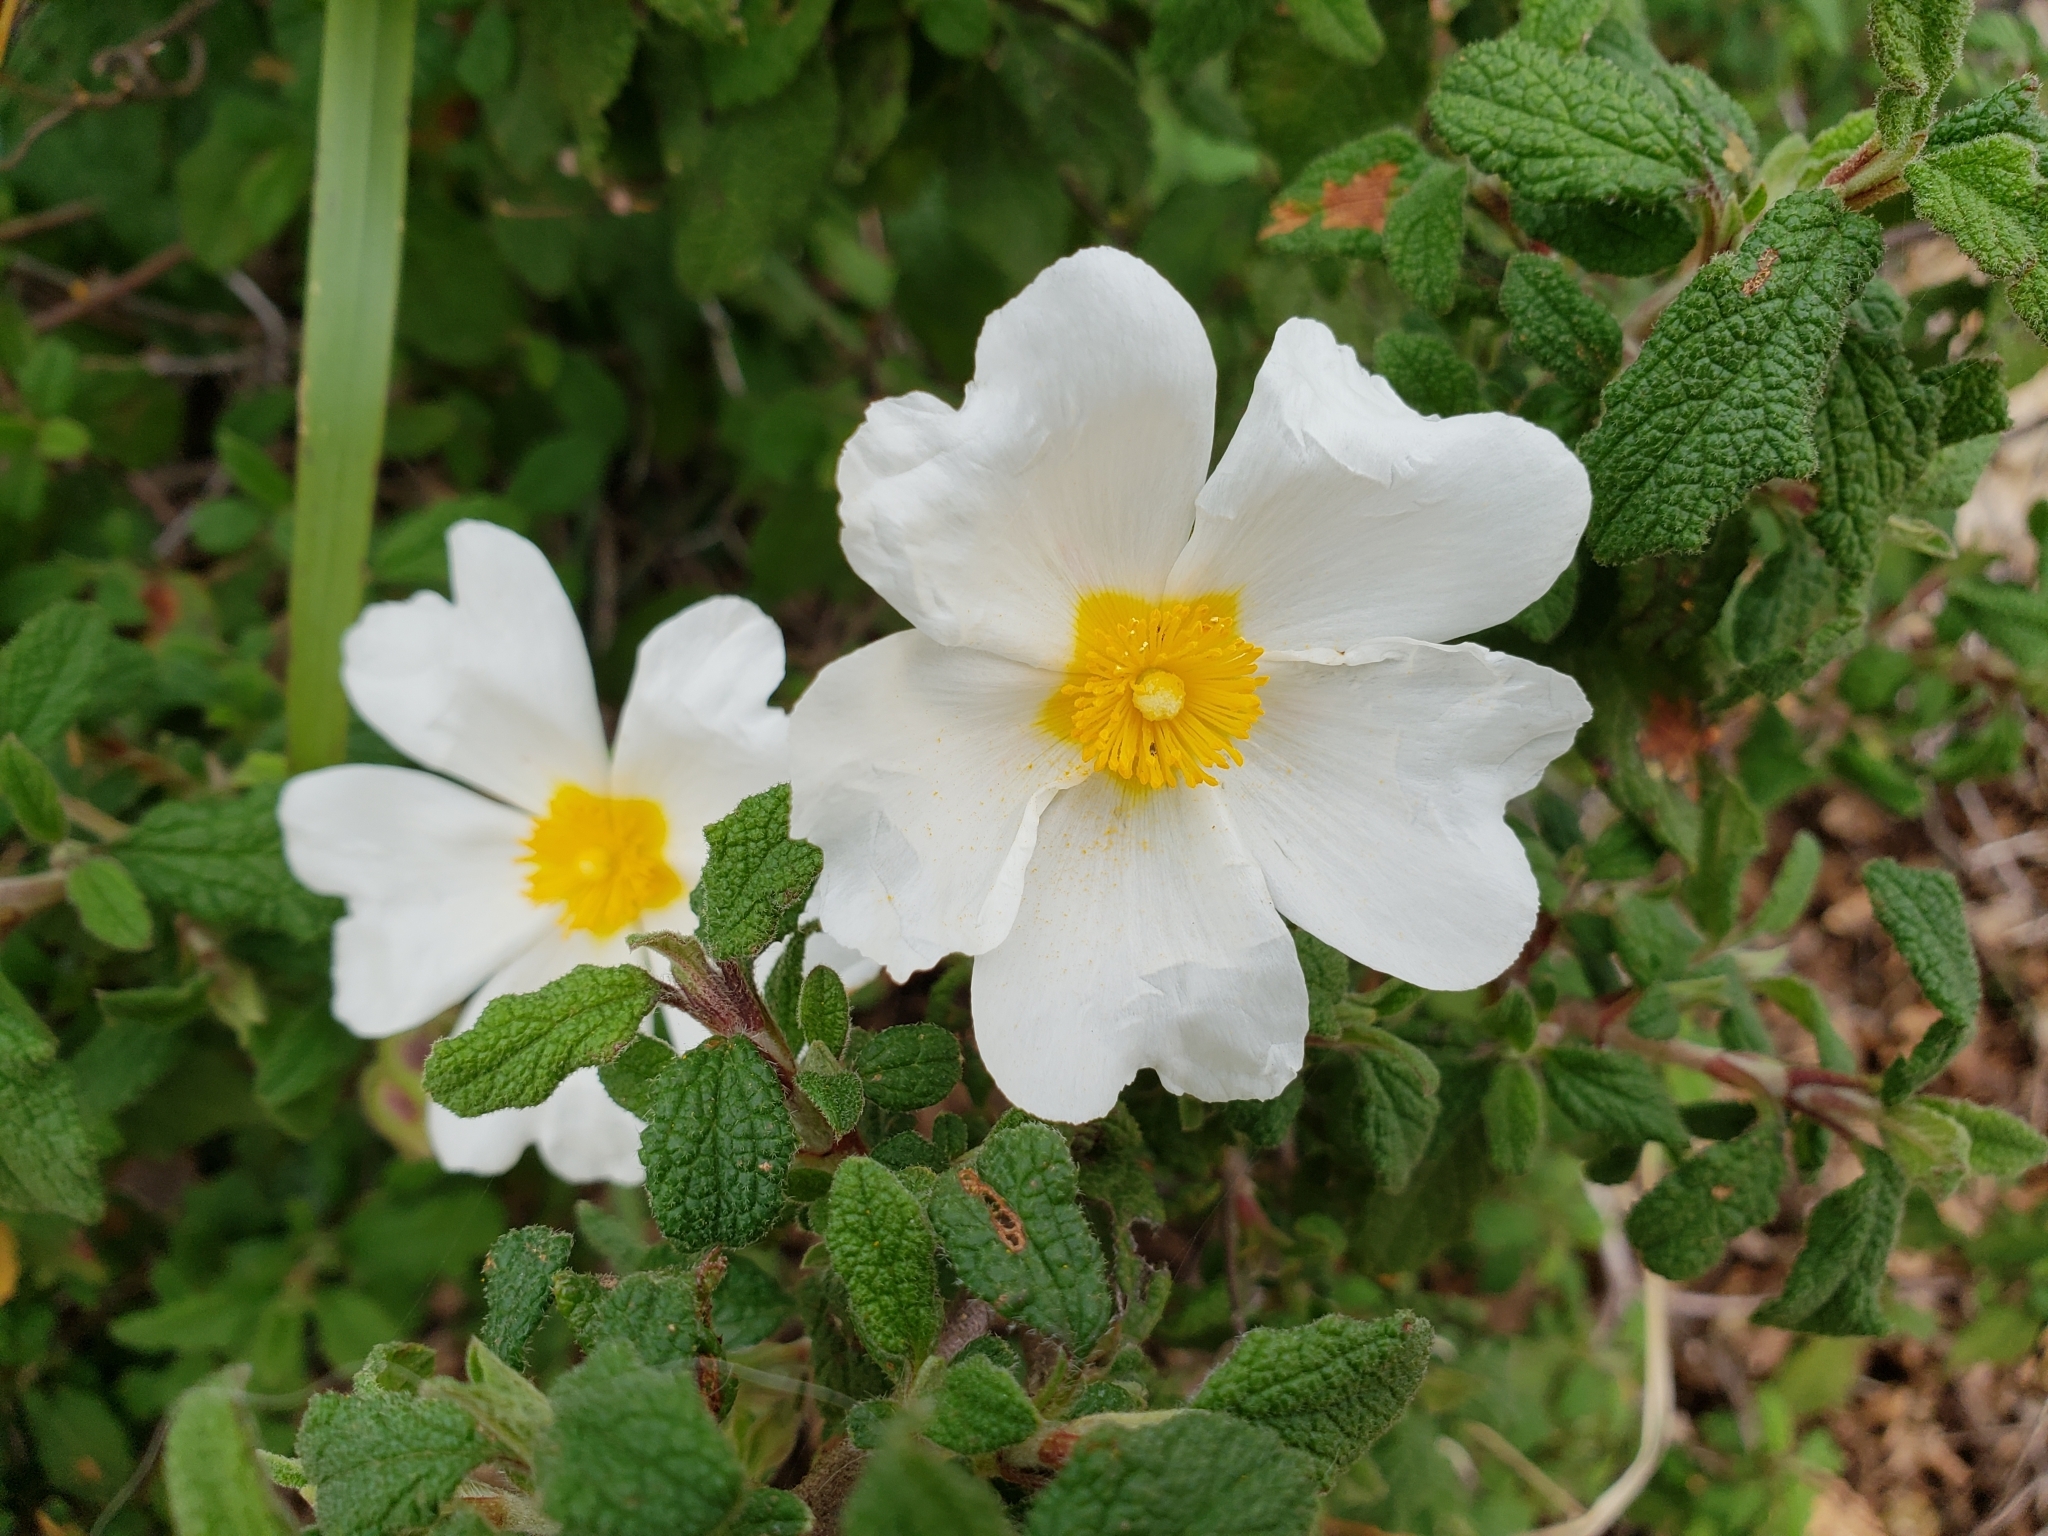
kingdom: Plantae
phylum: Tracheophyta
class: Magnoliopsida
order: Malvales
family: Cistaceae
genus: Cistus
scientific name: Cistus salviifolius
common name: Salvia cistus
